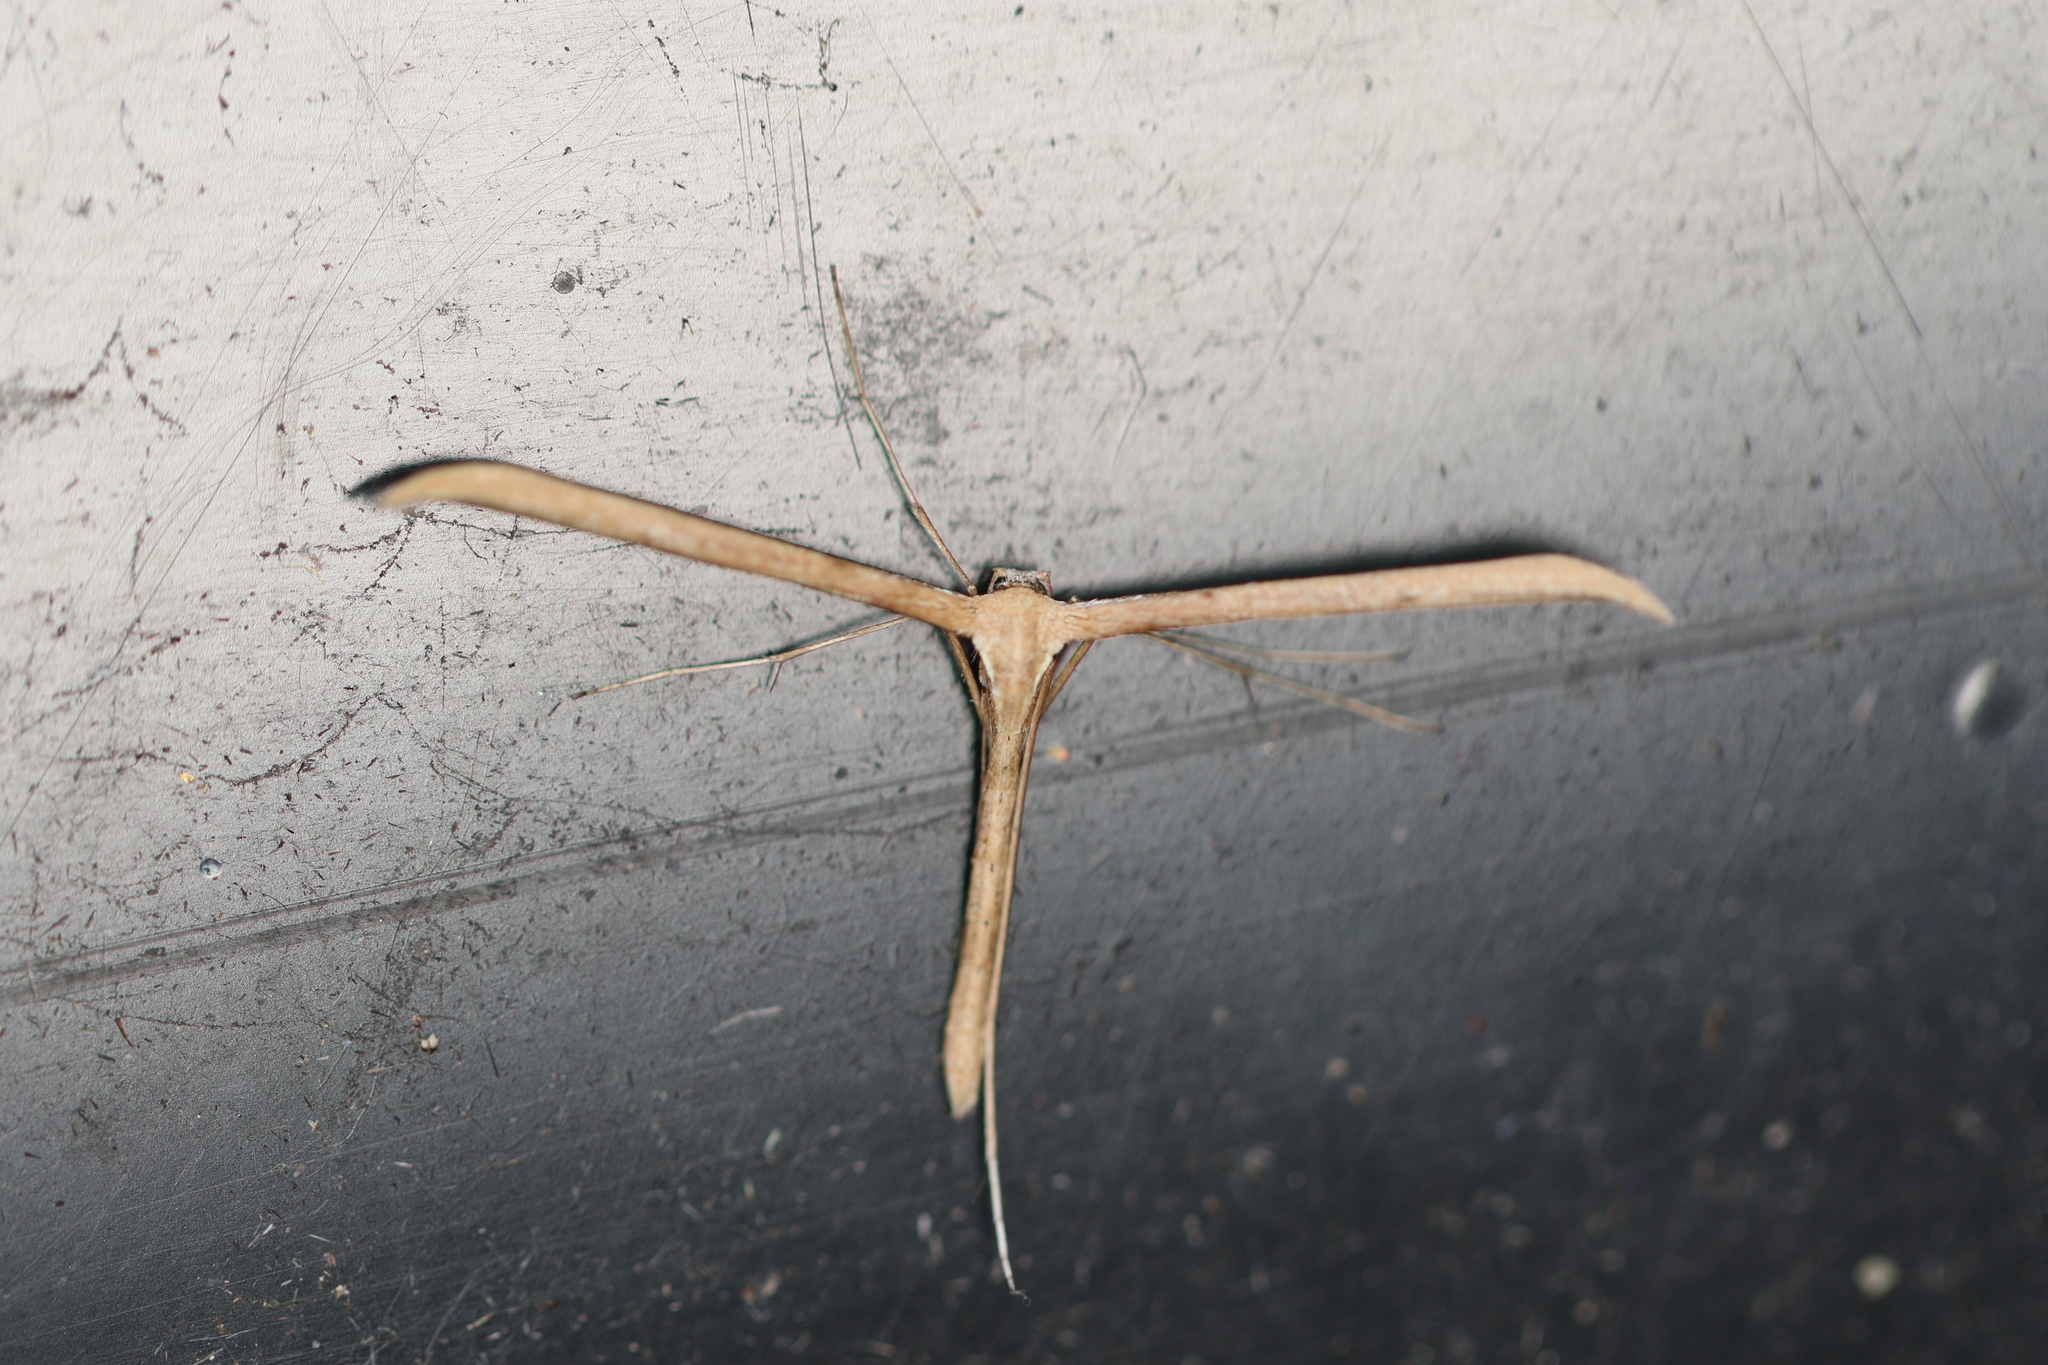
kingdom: Animalia
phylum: Arthropoda
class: Insecta
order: Lepidoptera
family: Pterophoridae
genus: Emmelina
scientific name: Emmelina monodactyla
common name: Common plume
